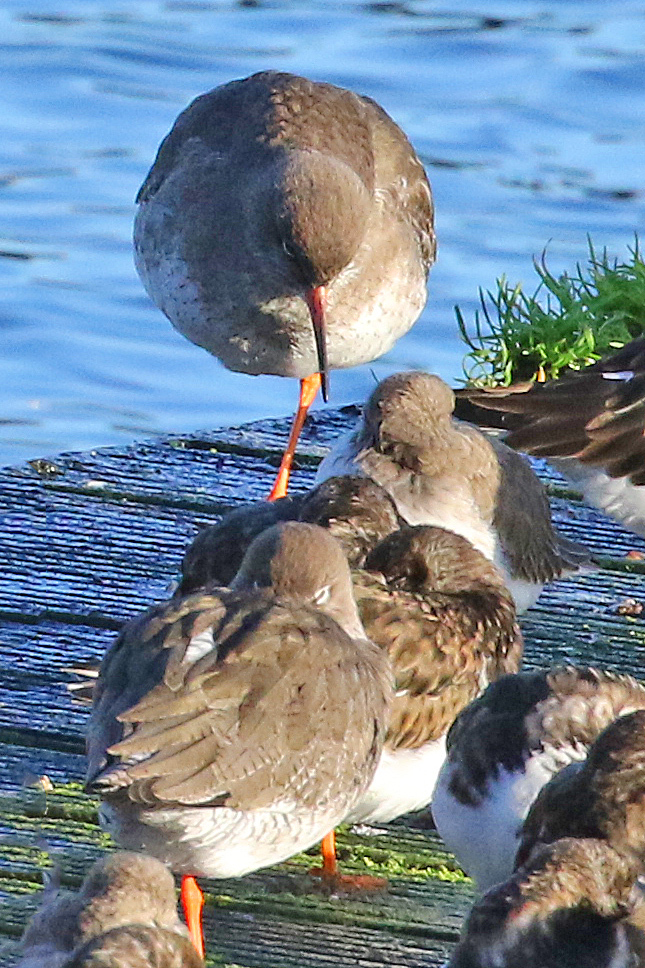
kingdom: Animalia
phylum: Chordata
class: Aves
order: Charadriiformes
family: Scolopacidae
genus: Tringa
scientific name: Tringa totanus
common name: Common redshank
